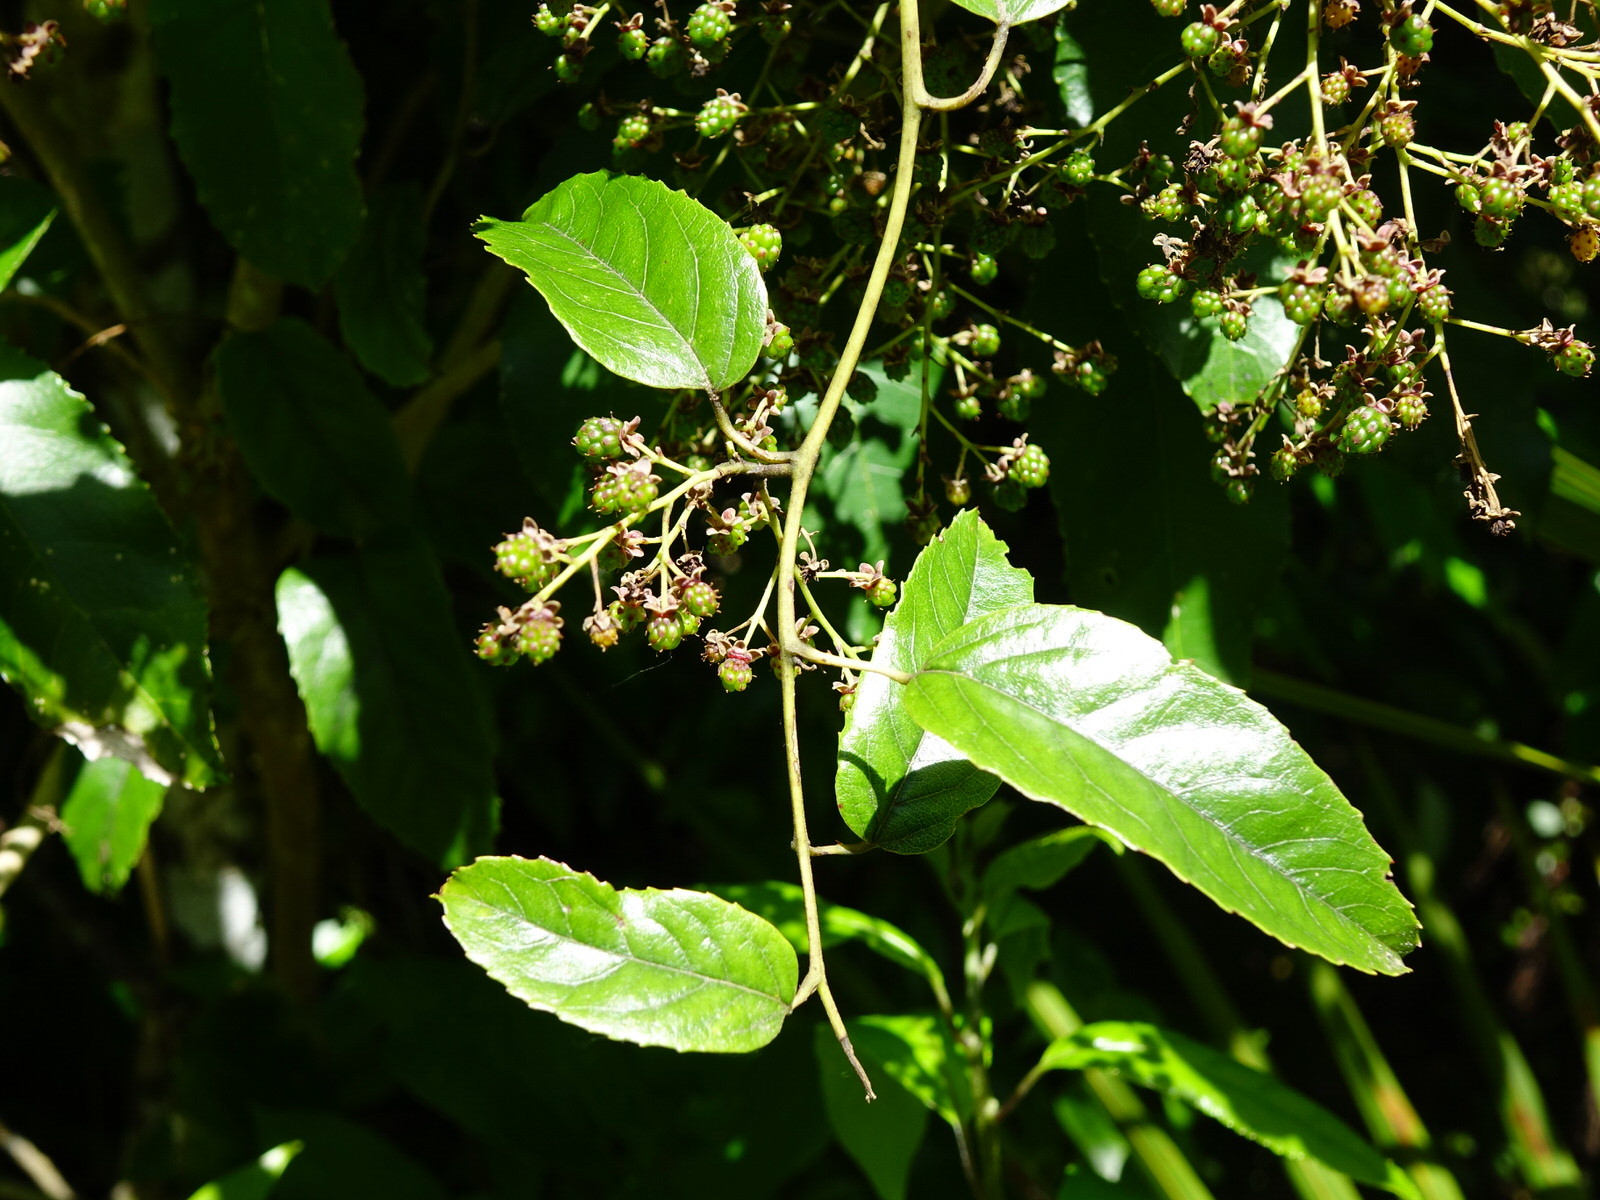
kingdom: Plantae
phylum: Tracheophyta
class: Magnoliopsida
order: Rosales
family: Rosaceae
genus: Rubus
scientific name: Rubus cissoides
